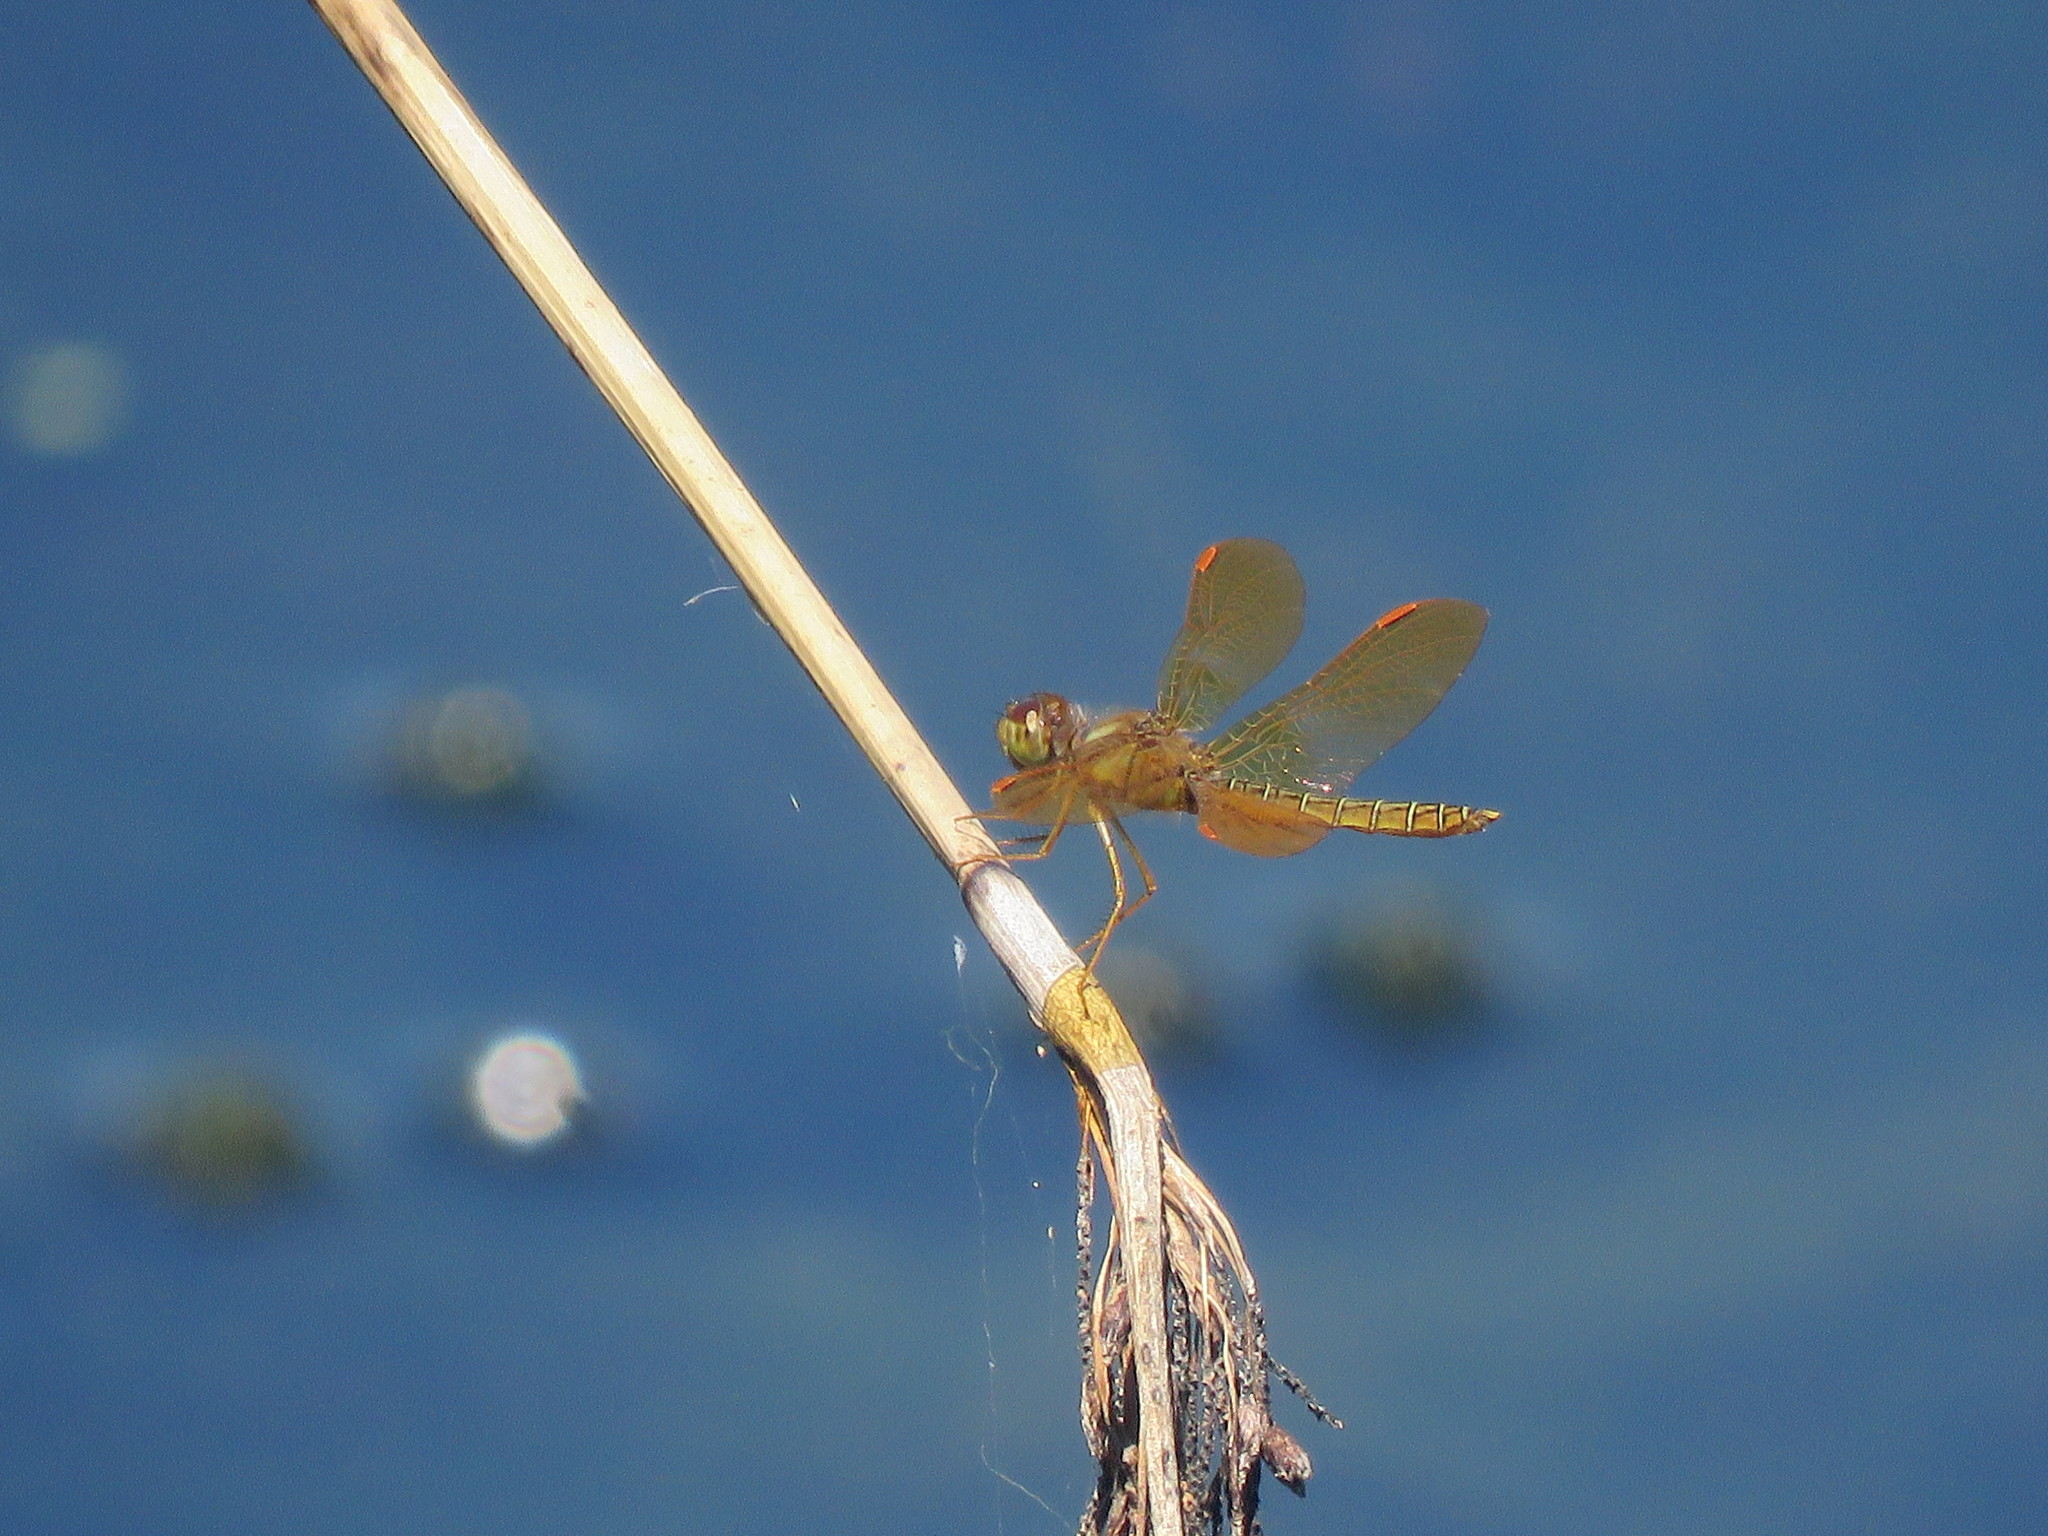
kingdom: Animalia
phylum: Arthropoda
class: Insecta
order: Odonata
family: Libellulidae
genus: Perithemis
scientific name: Perithemis tenera
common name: Eastern amberwing
